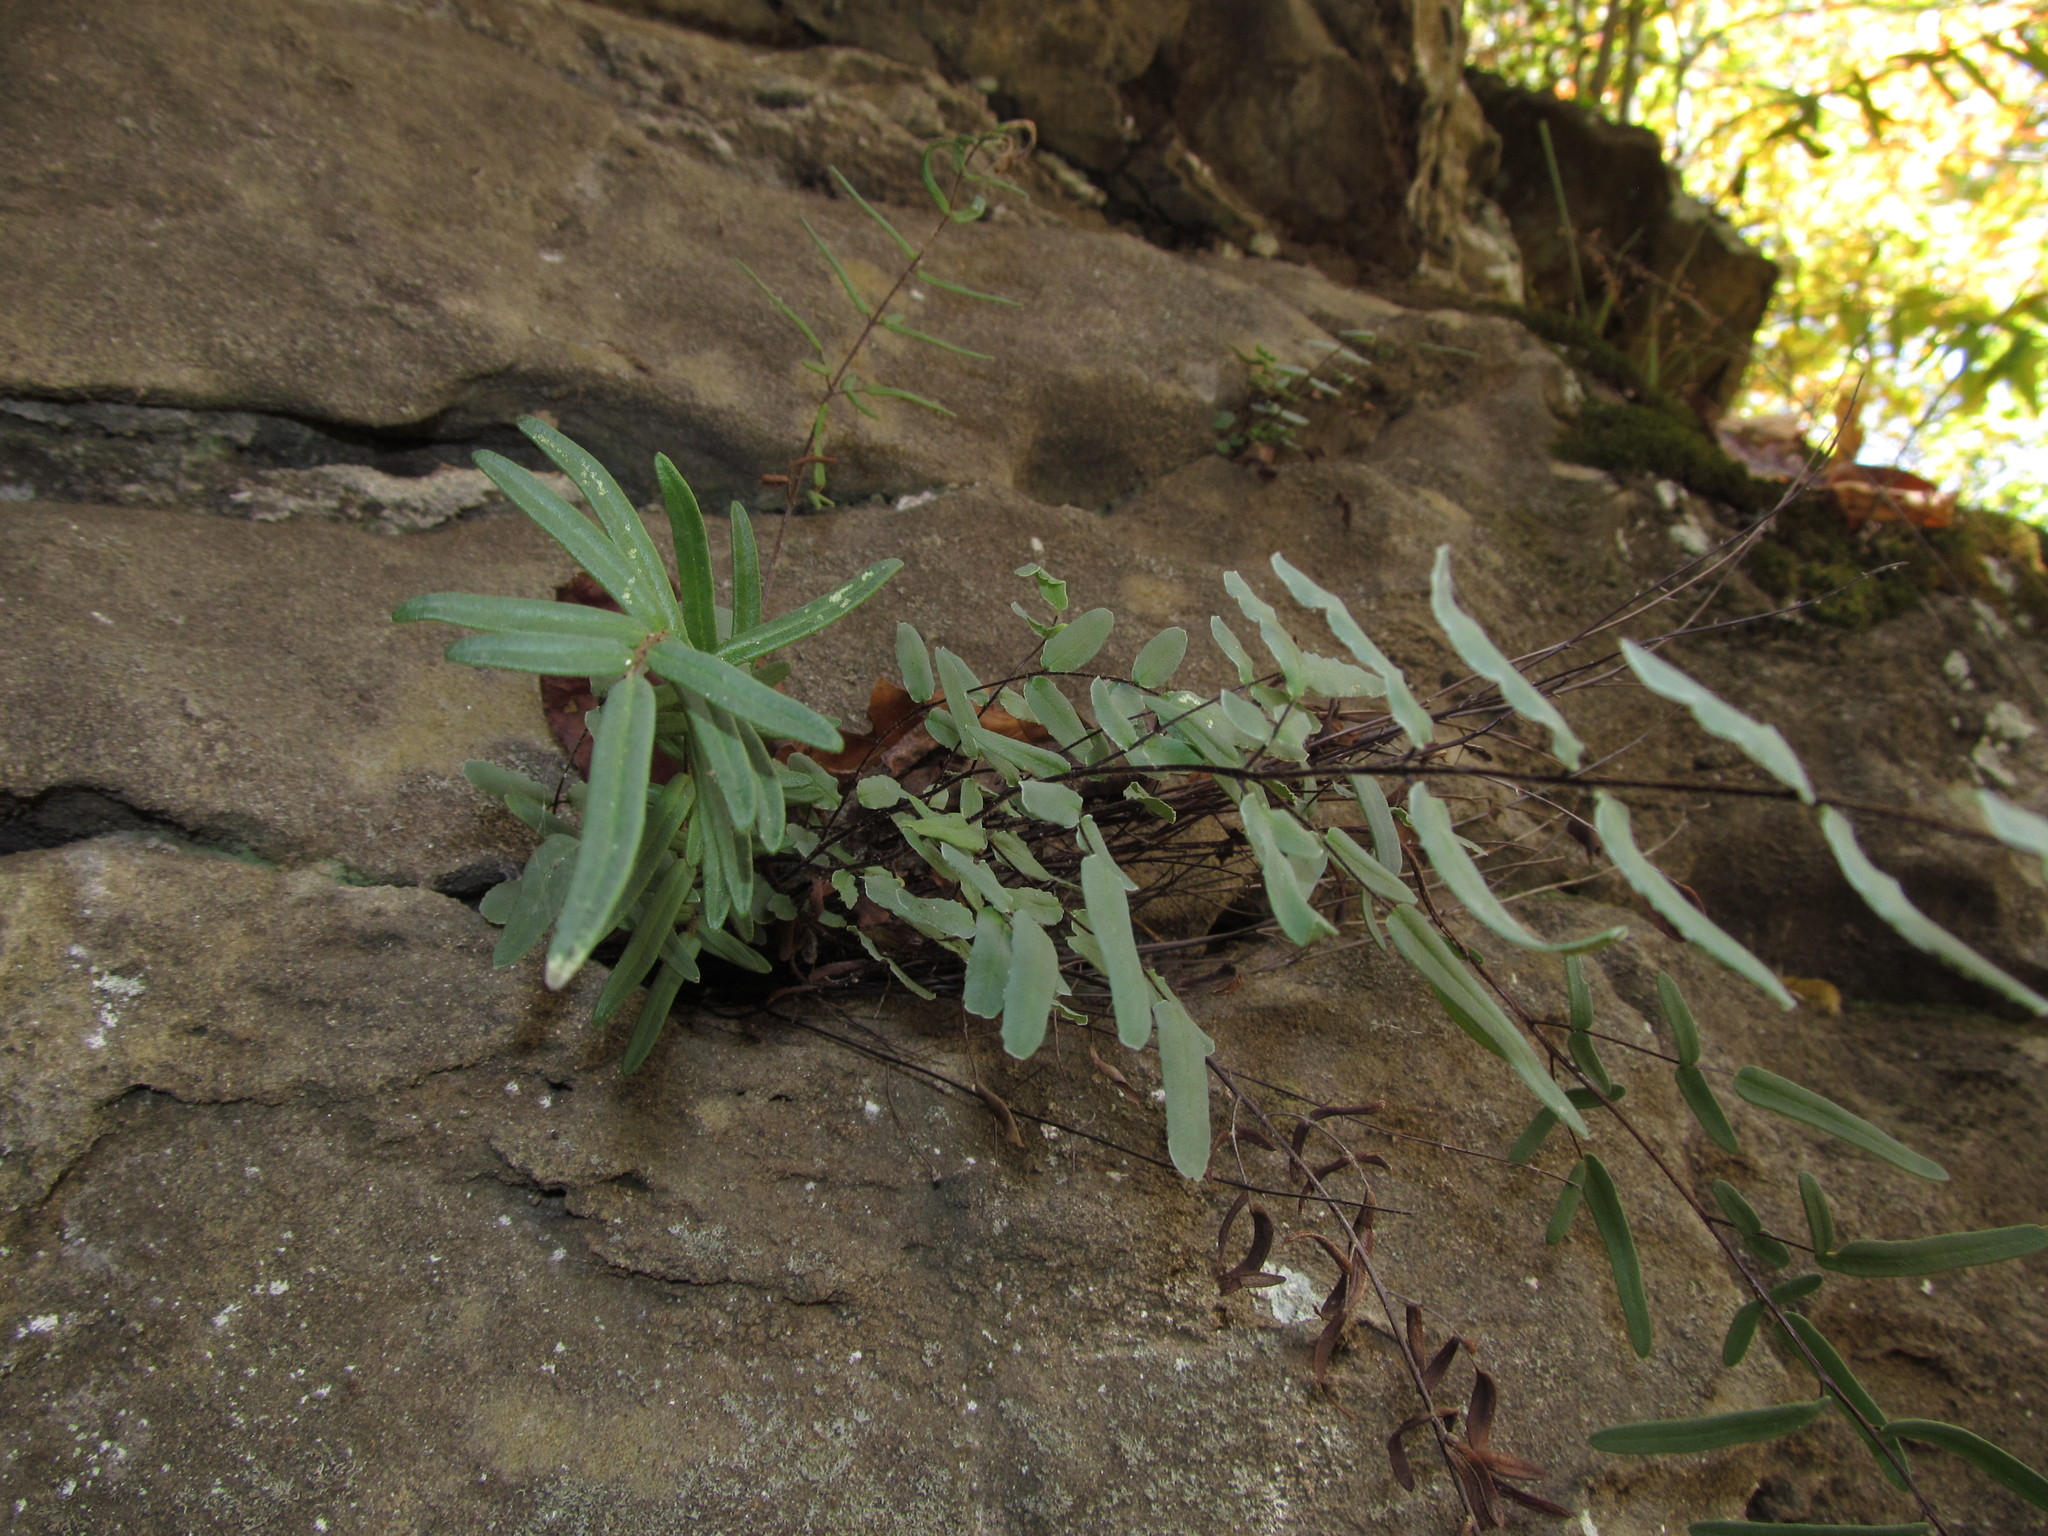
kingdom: Plantae
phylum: Tracheophyta
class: Polypodiopsida
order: Polypodiales
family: Pteridaceae
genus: Pellaea
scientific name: Pellaea atropurpurea
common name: Hairy cliffbrake
